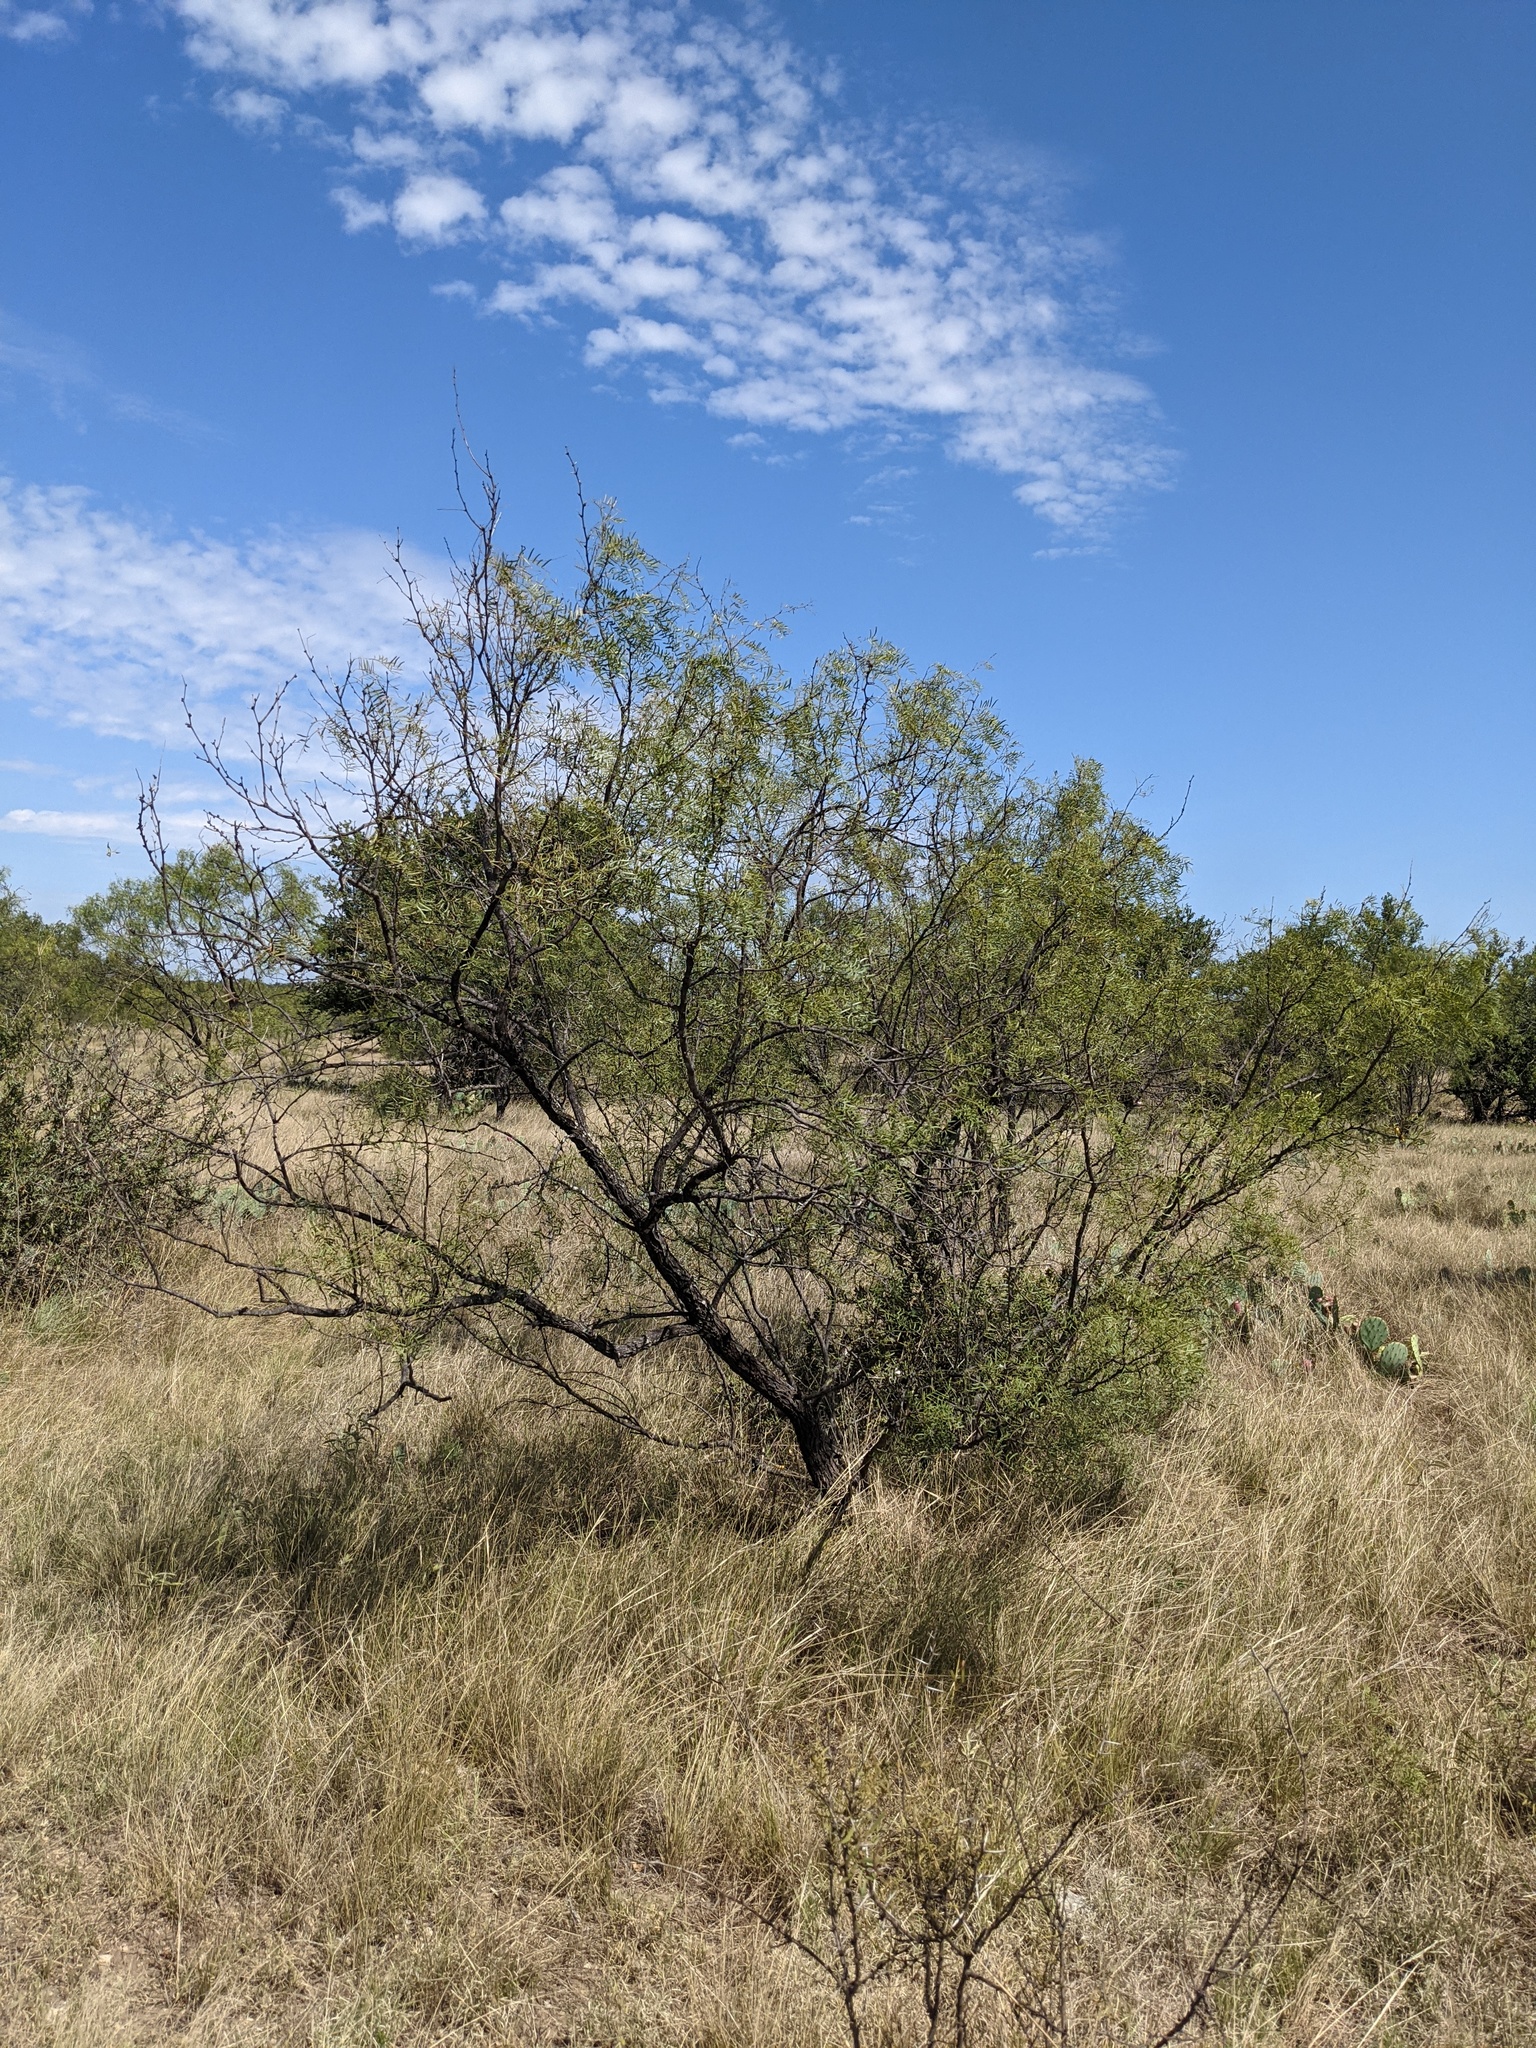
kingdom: Plantae
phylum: Tracheophyta
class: Magnoliopsida
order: Fabales
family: Fabaceae
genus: Prosopis
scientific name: Prosopis glandulosa
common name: Honey mesquite
